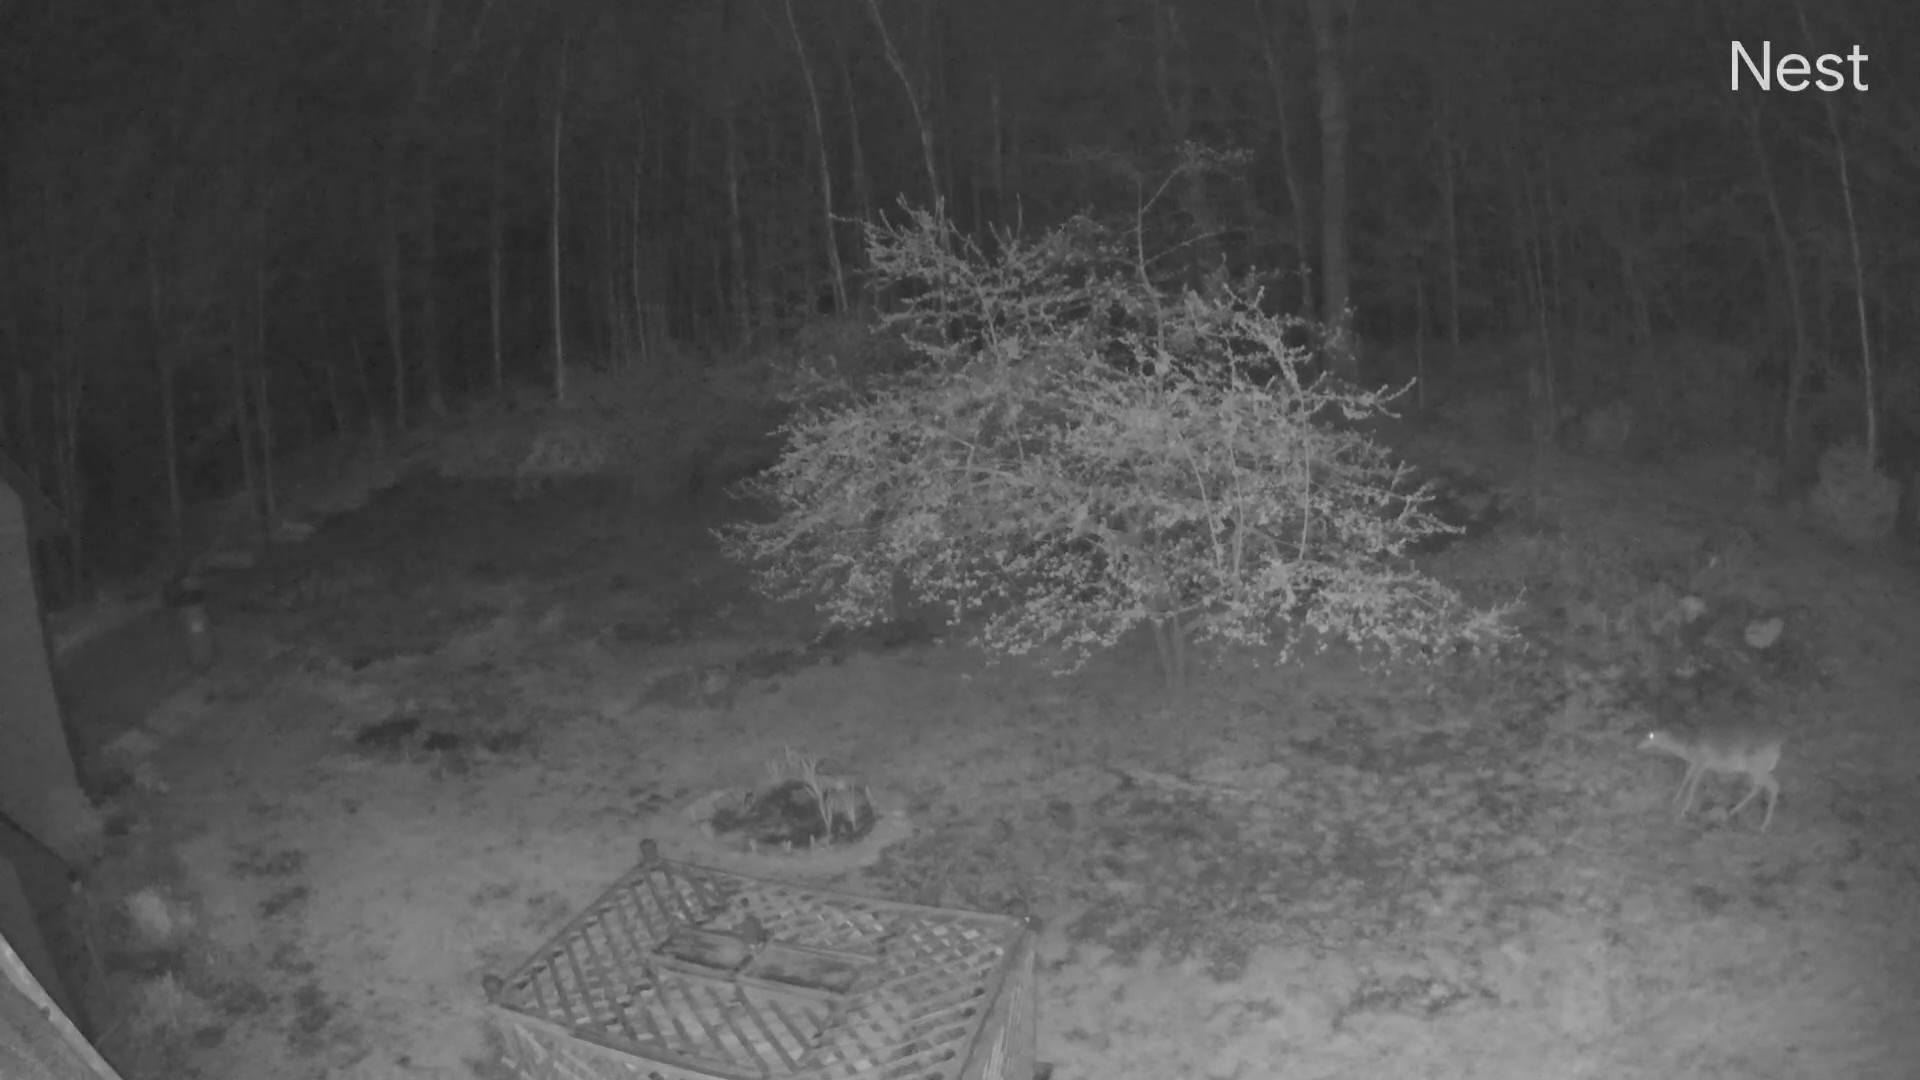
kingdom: Animalia
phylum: Chordata
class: Mammalia
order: Artiodactyla
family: Cervidae
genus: Odocoileus
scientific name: Odocoileus virginianus
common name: White-tailed deer
